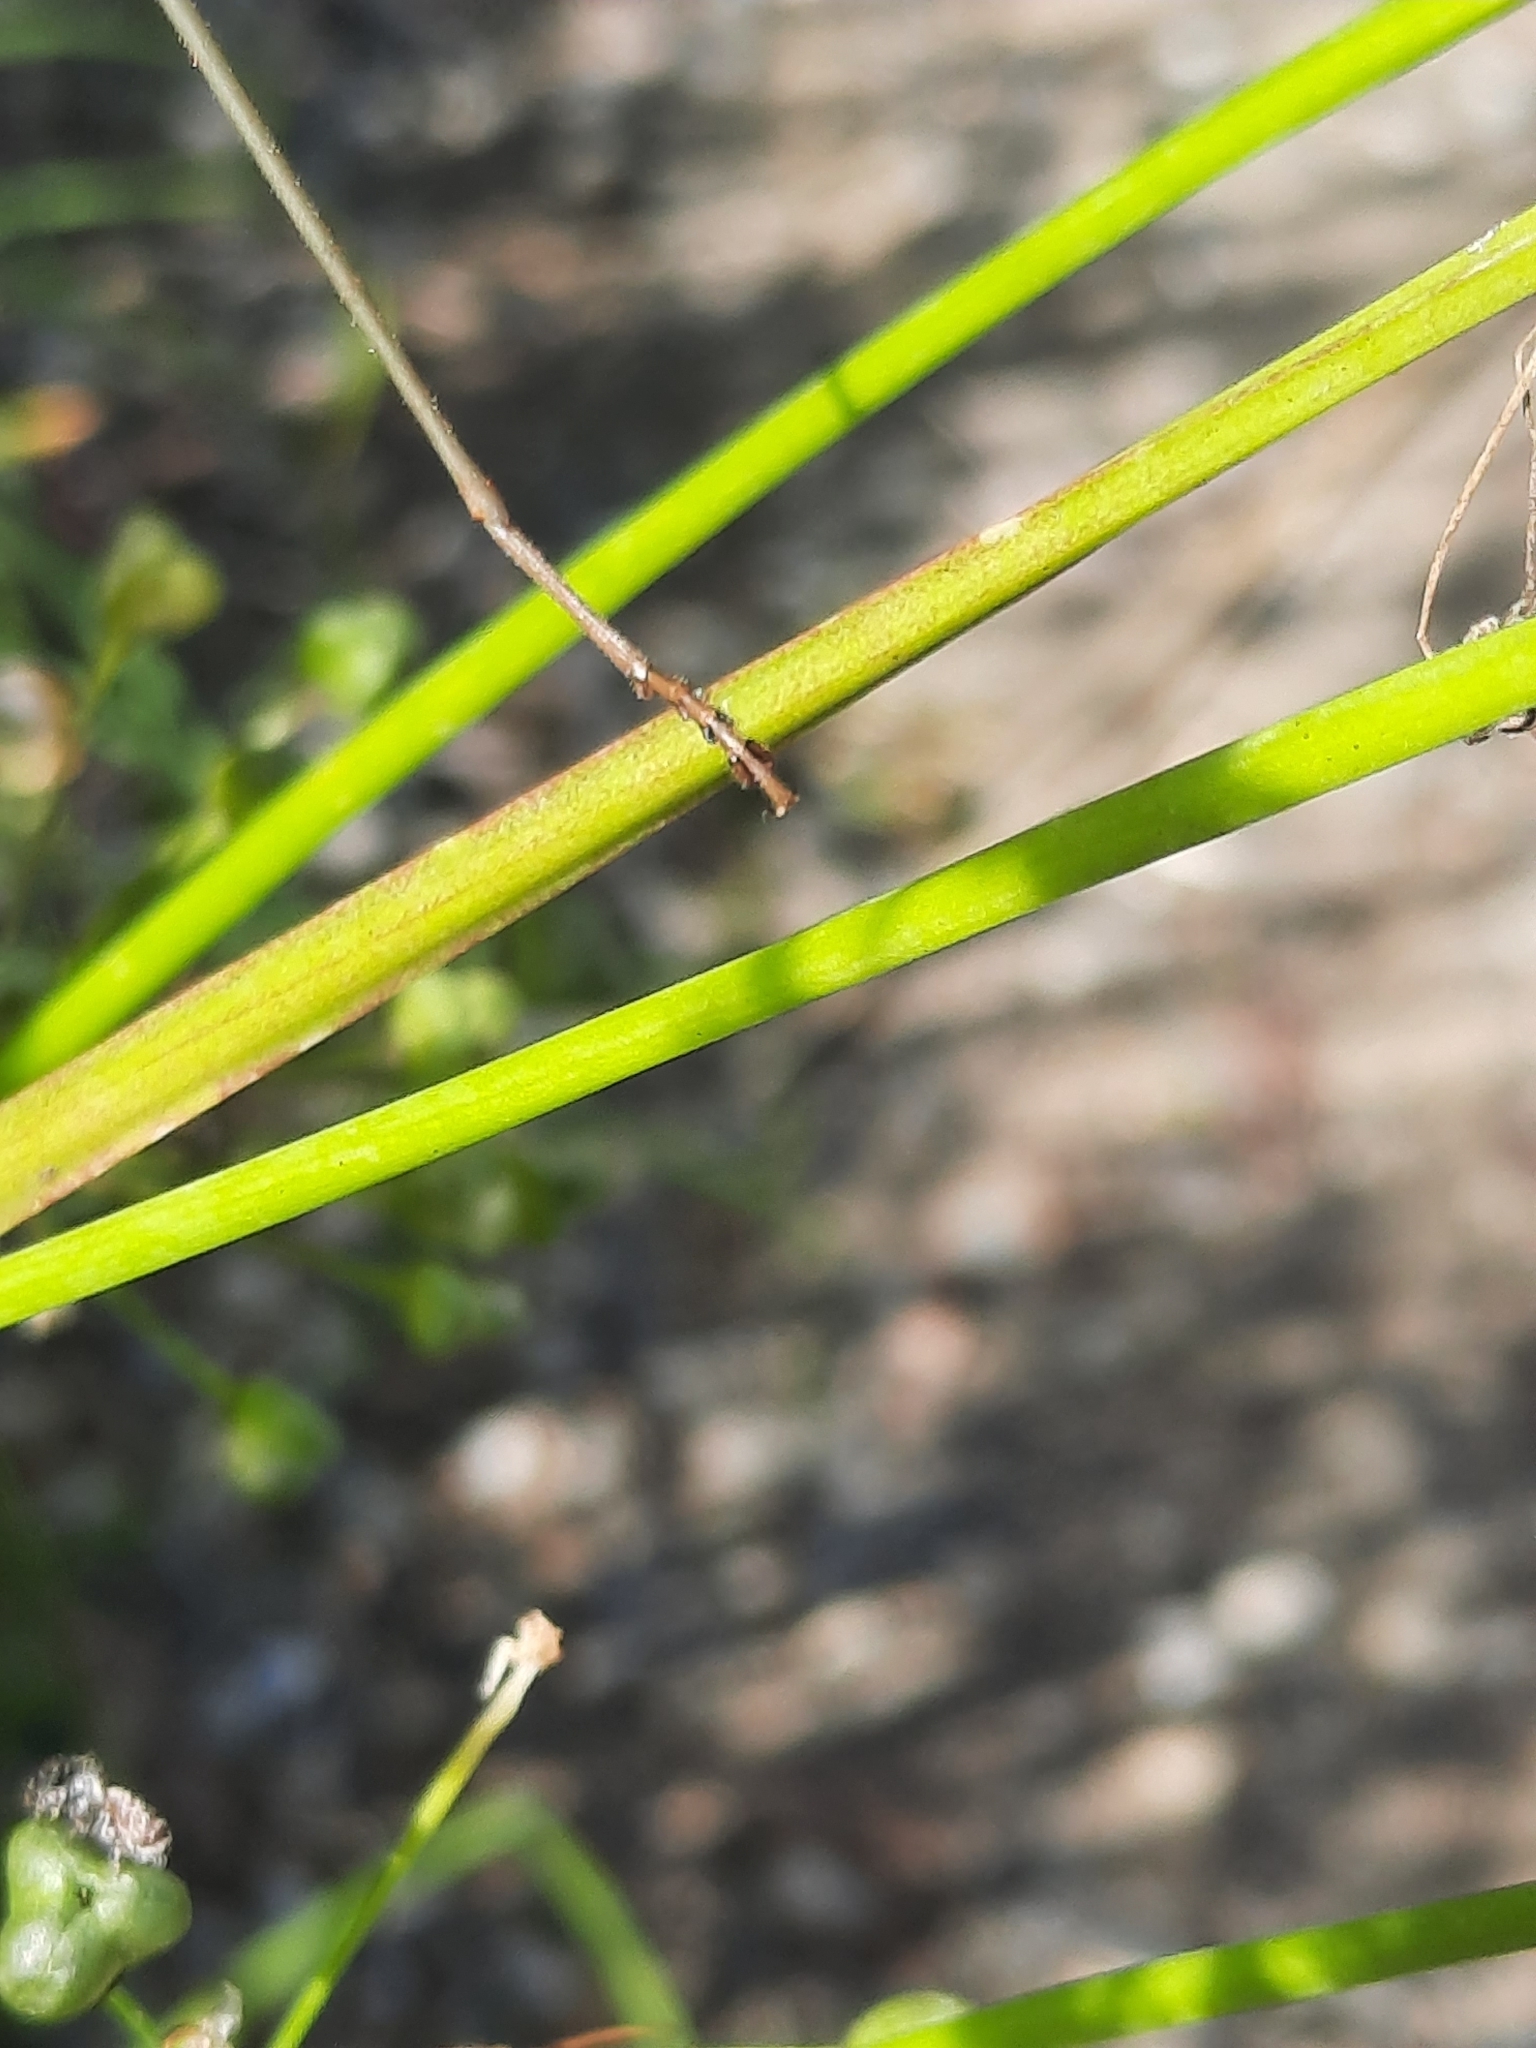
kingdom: Animalia
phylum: Arthropoda
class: Insecta
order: Mantodea
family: Mantidae
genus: Tenodera
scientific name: Tenodera sinensis
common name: Chinese mantis
